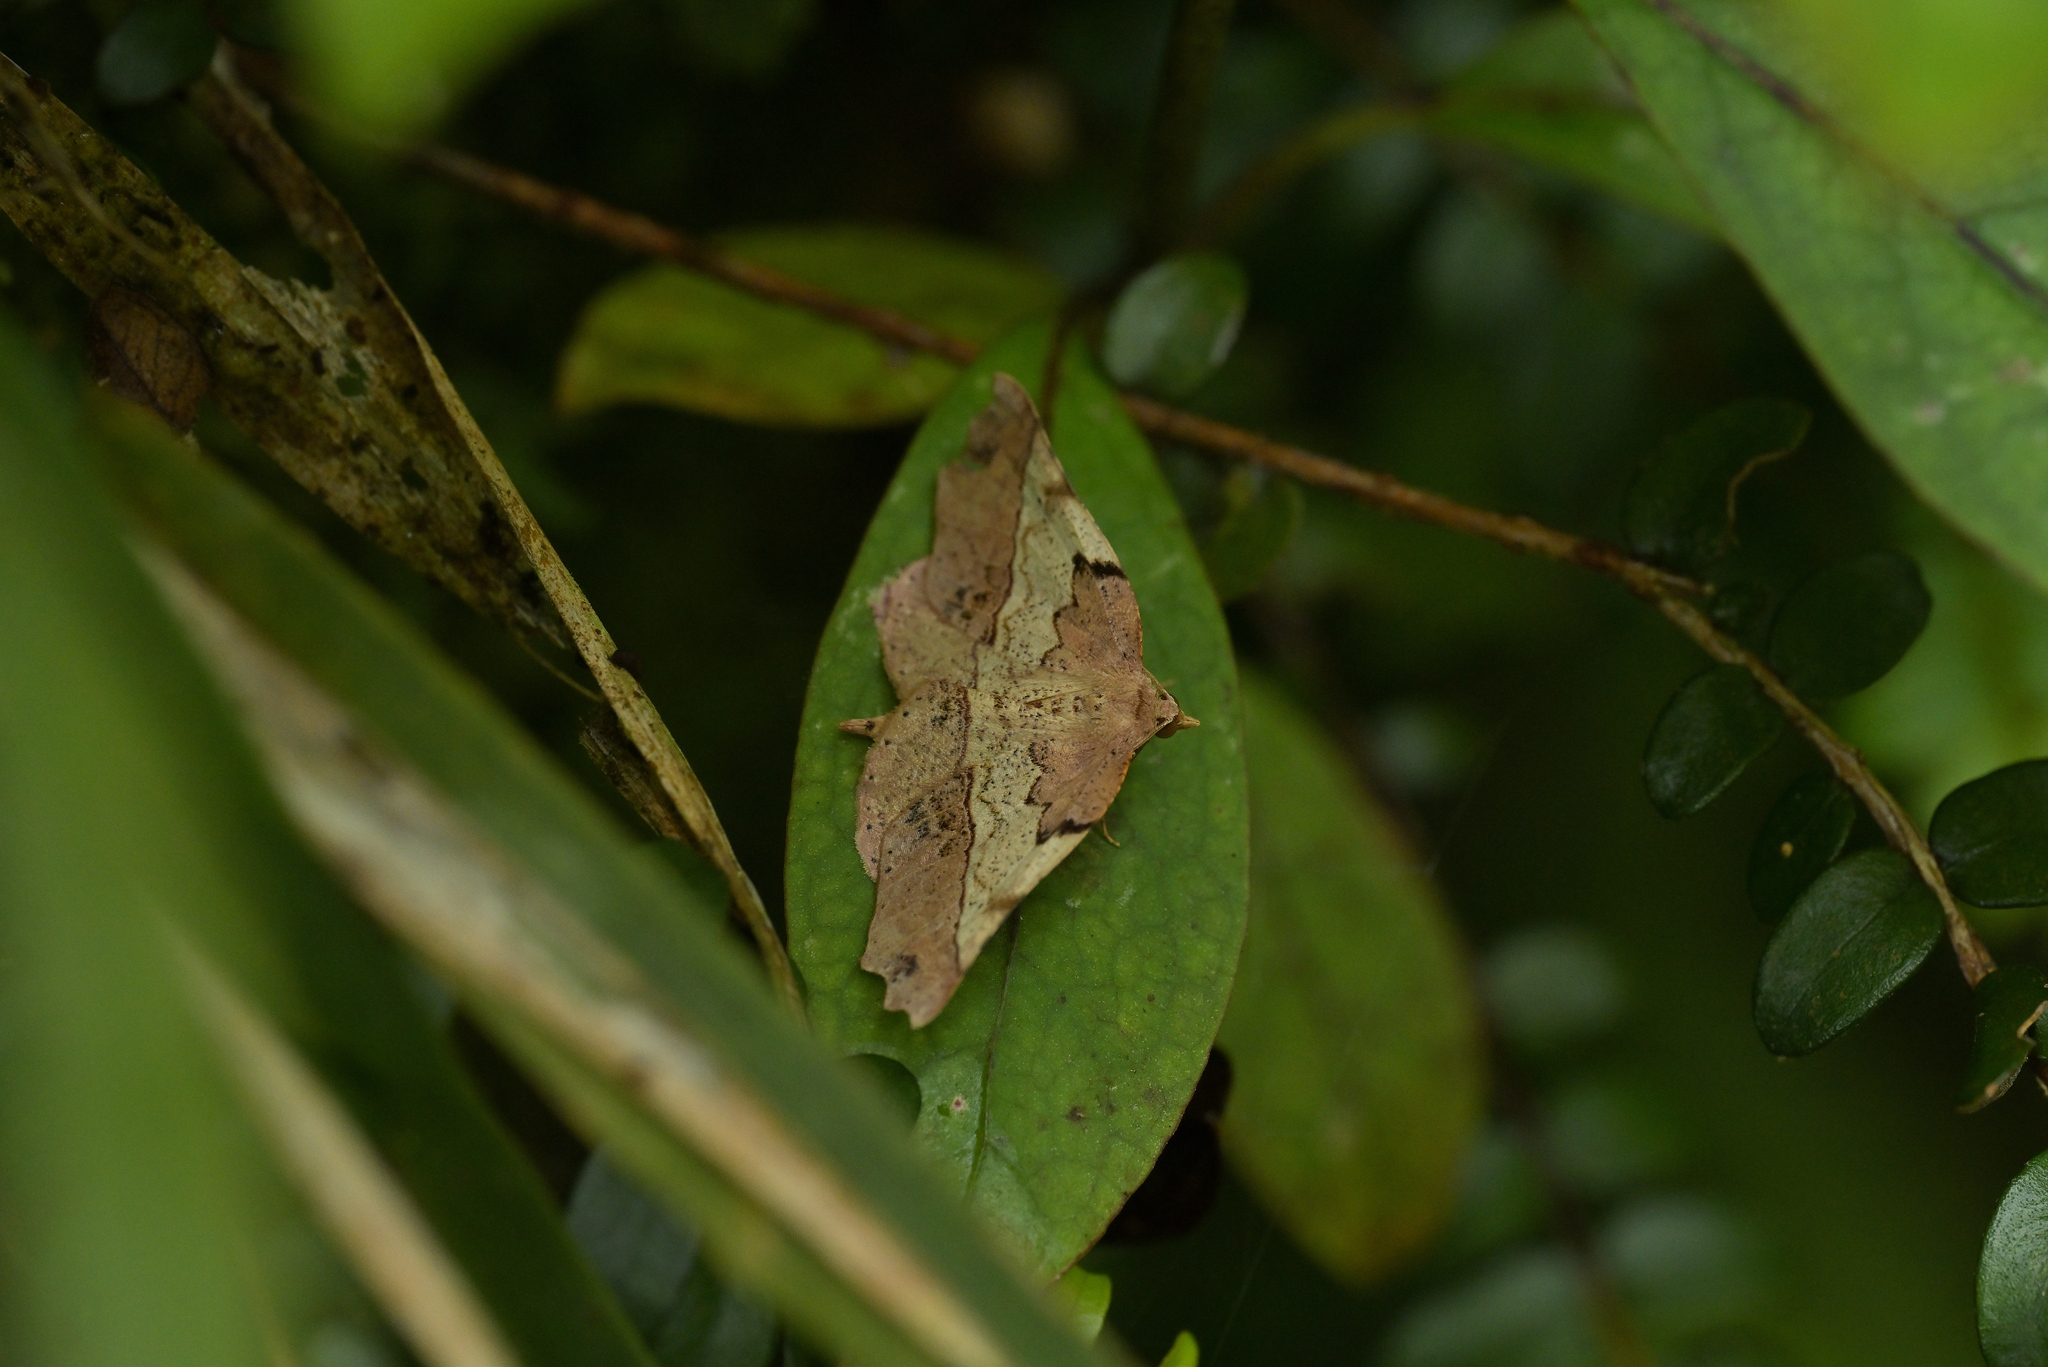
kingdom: Animalia
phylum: Arthropoda
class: Insecta
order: Lepidoptera
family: Geometridae
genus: Ischalis
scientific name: Ischalis gallaria
